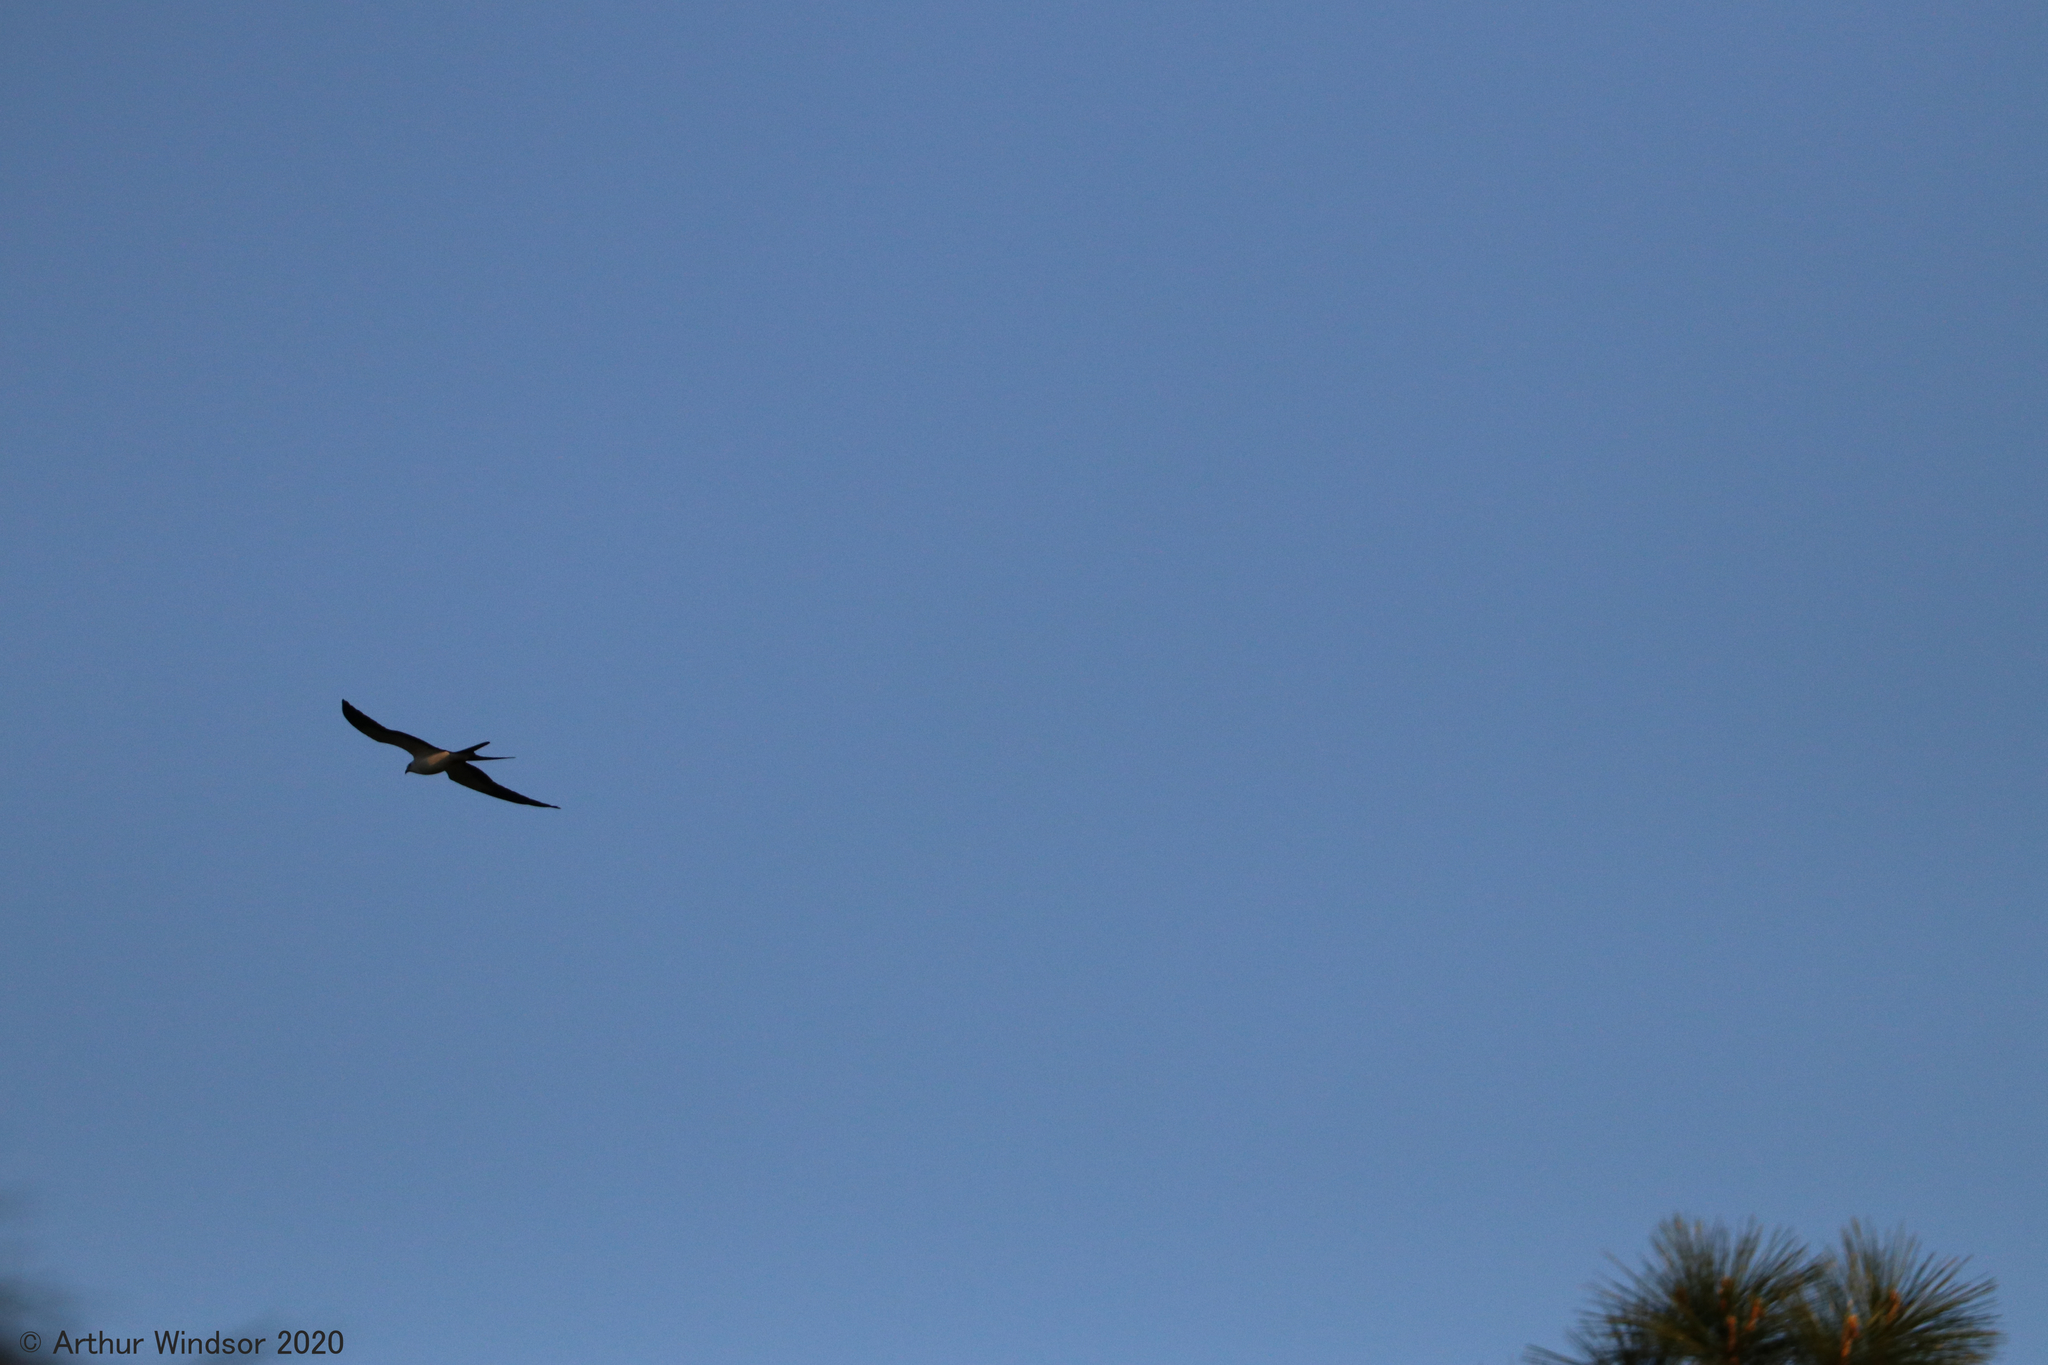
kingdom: Animalia
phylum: Chordata
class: Aves
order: Accipitriformes
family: Accipitridae
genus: Elanoides
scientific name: Elanoides forficatus
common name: Swallow-tailed kite
